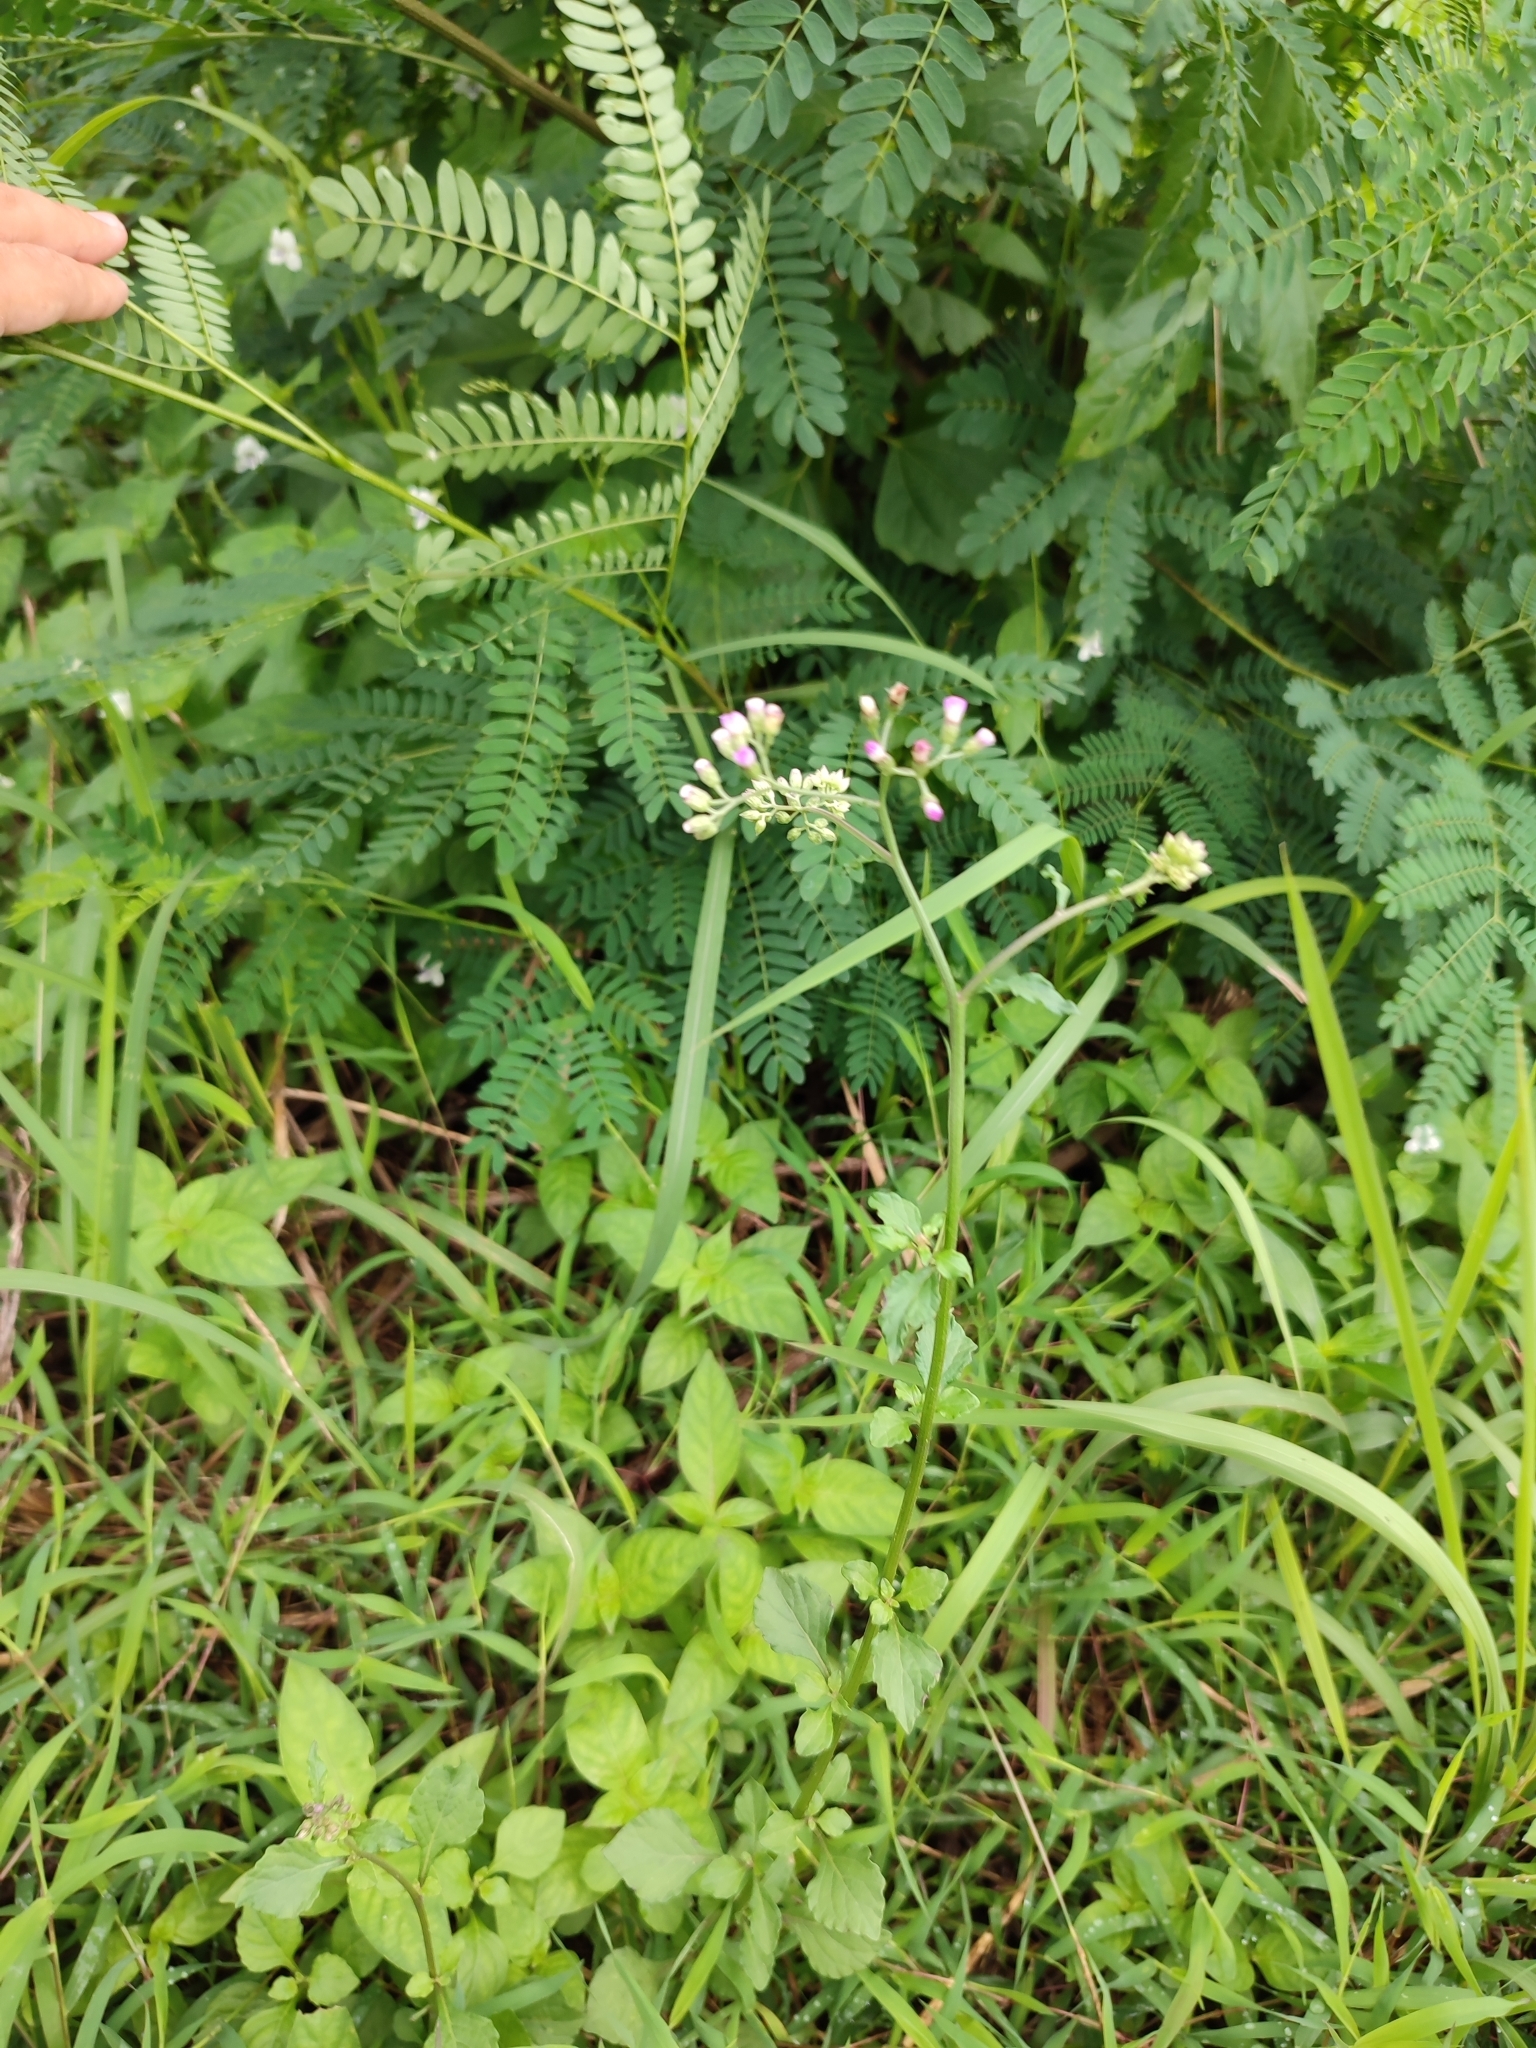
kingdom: Plantae
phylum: Tracheophyta
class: Magnoliopsida
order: Asterales
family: Asteraceae
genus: Cyanthillium
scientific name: Cyanthillium cinereum
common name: Little ironweed
